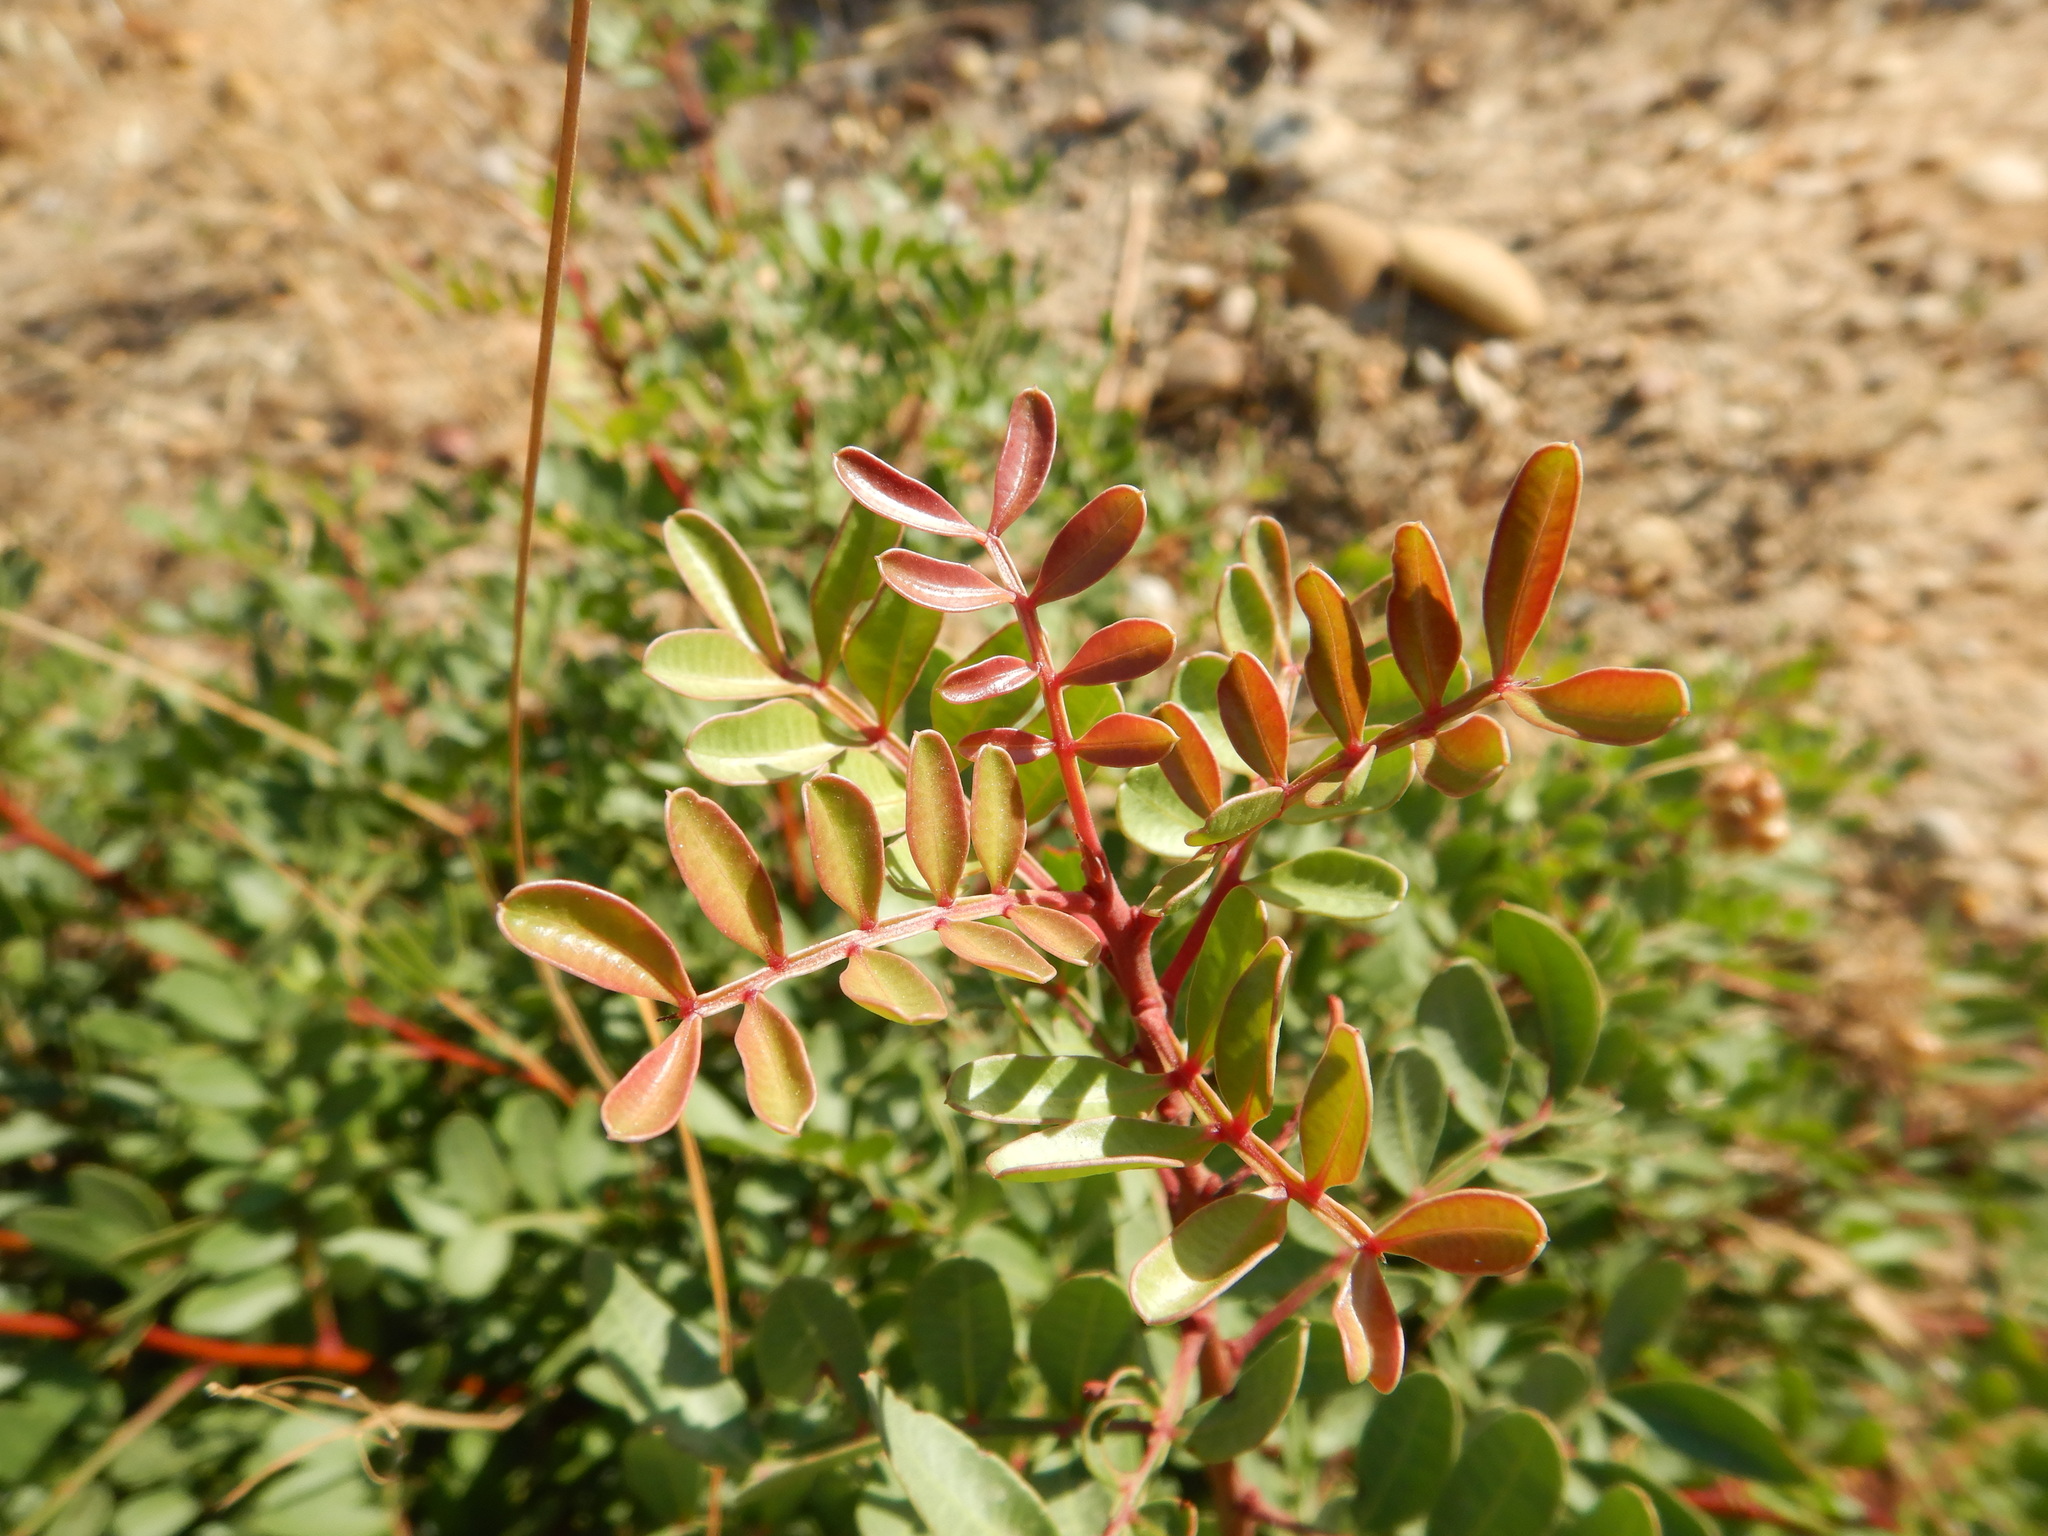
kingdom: Plantae
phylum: Tracheophyta
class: Magnoliopsida
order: Sapindales
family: Anacardiaceae
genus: Pistacia
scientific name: Pistacia lentiscus
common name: Lentisk
